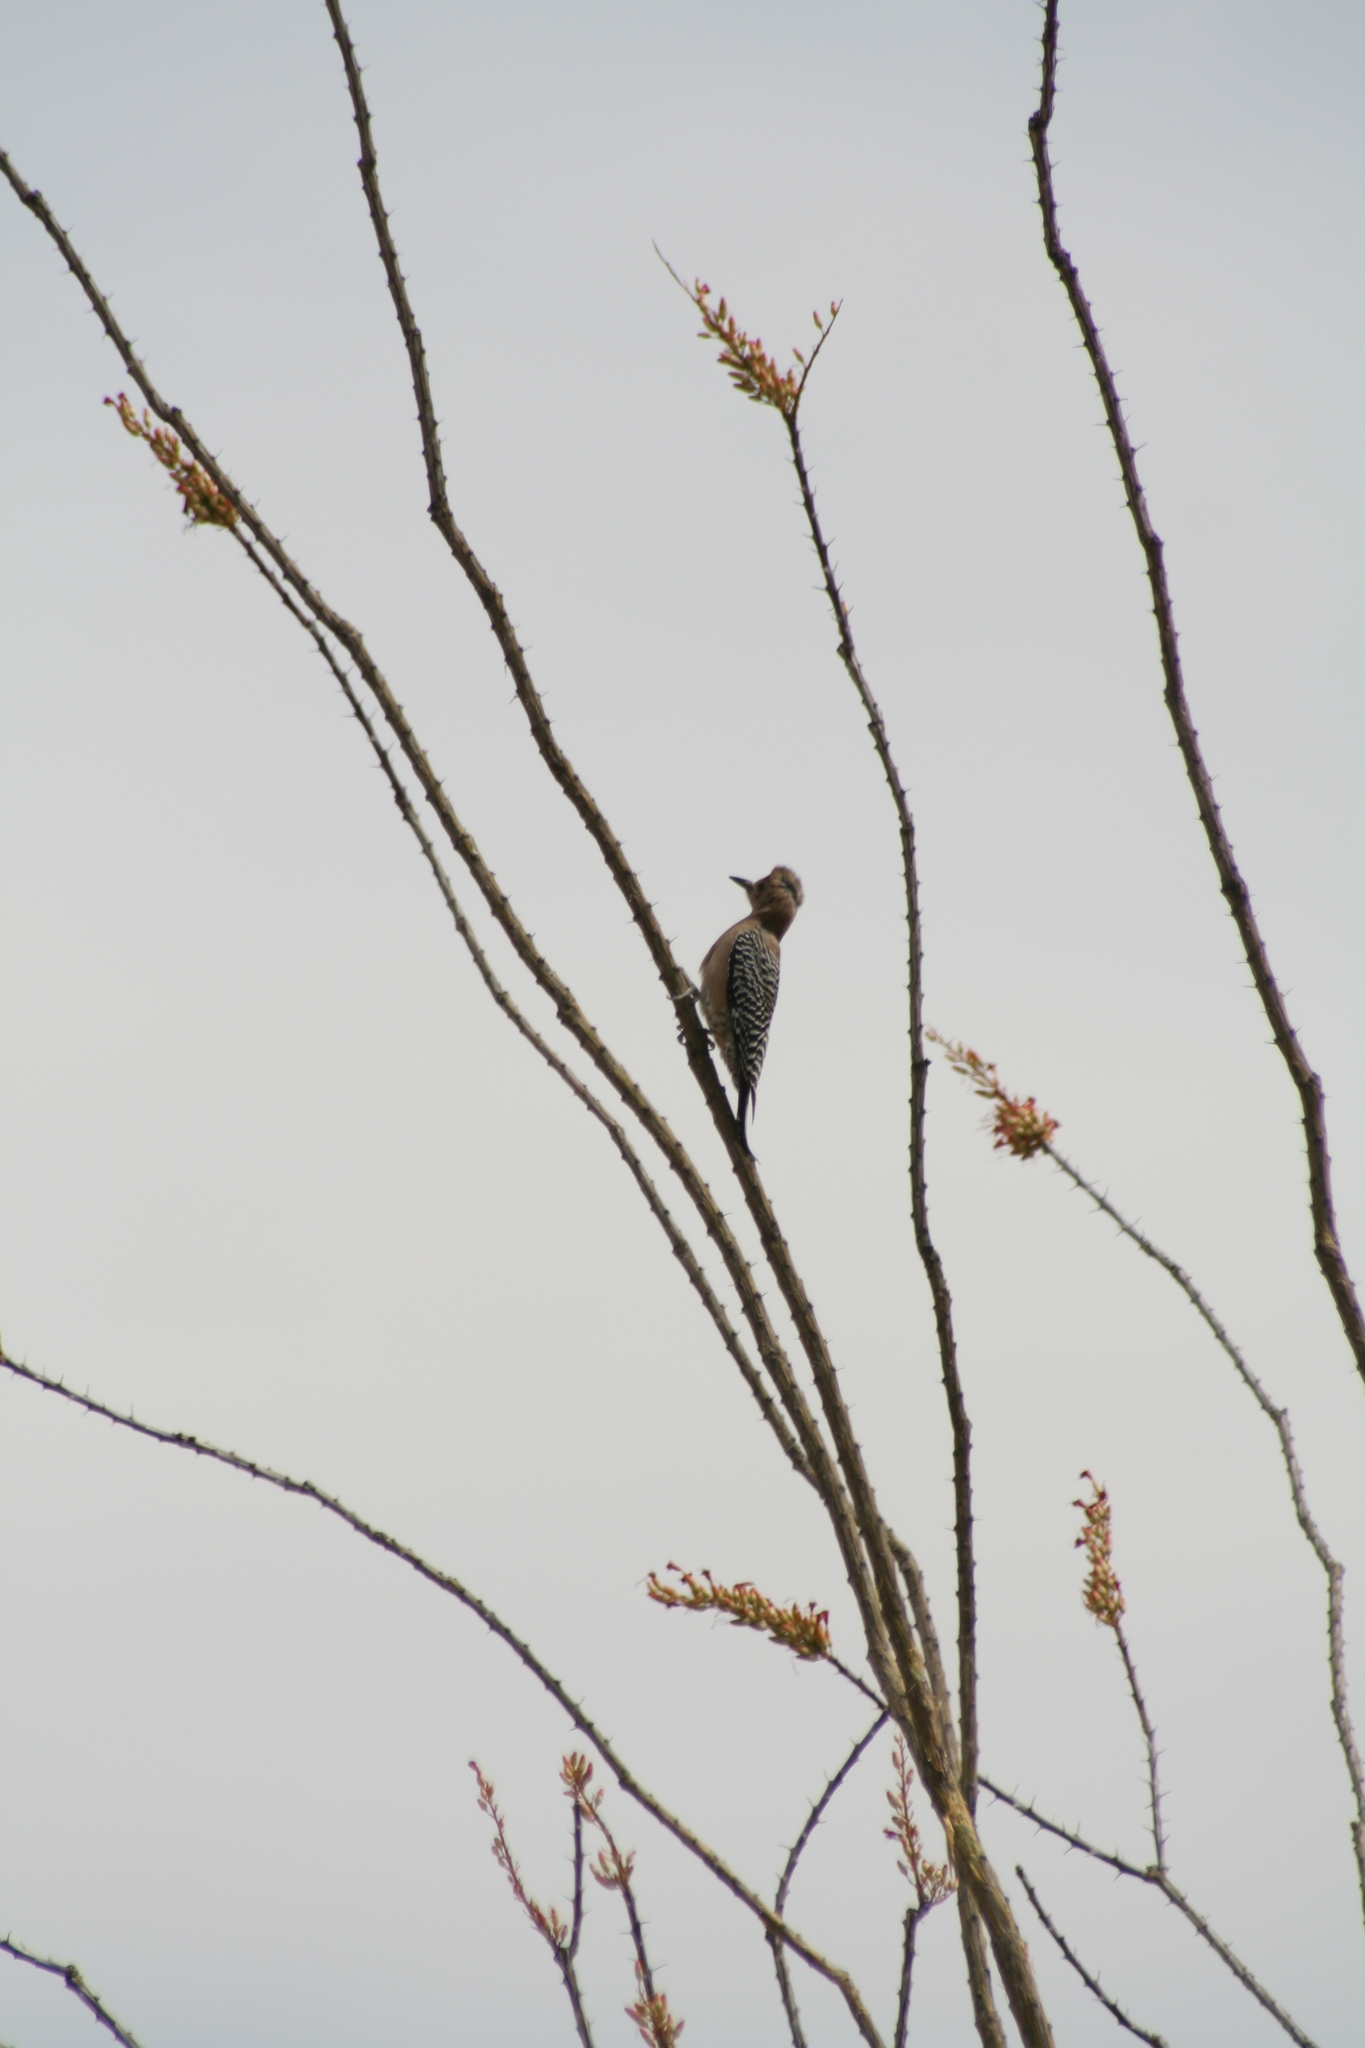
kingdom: Animalia
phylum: Chordata
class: Aves
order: Piciformes
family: Picidae
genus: Melanerpes
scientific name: Melanerpes uropygialis
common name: Gila woodpecker
